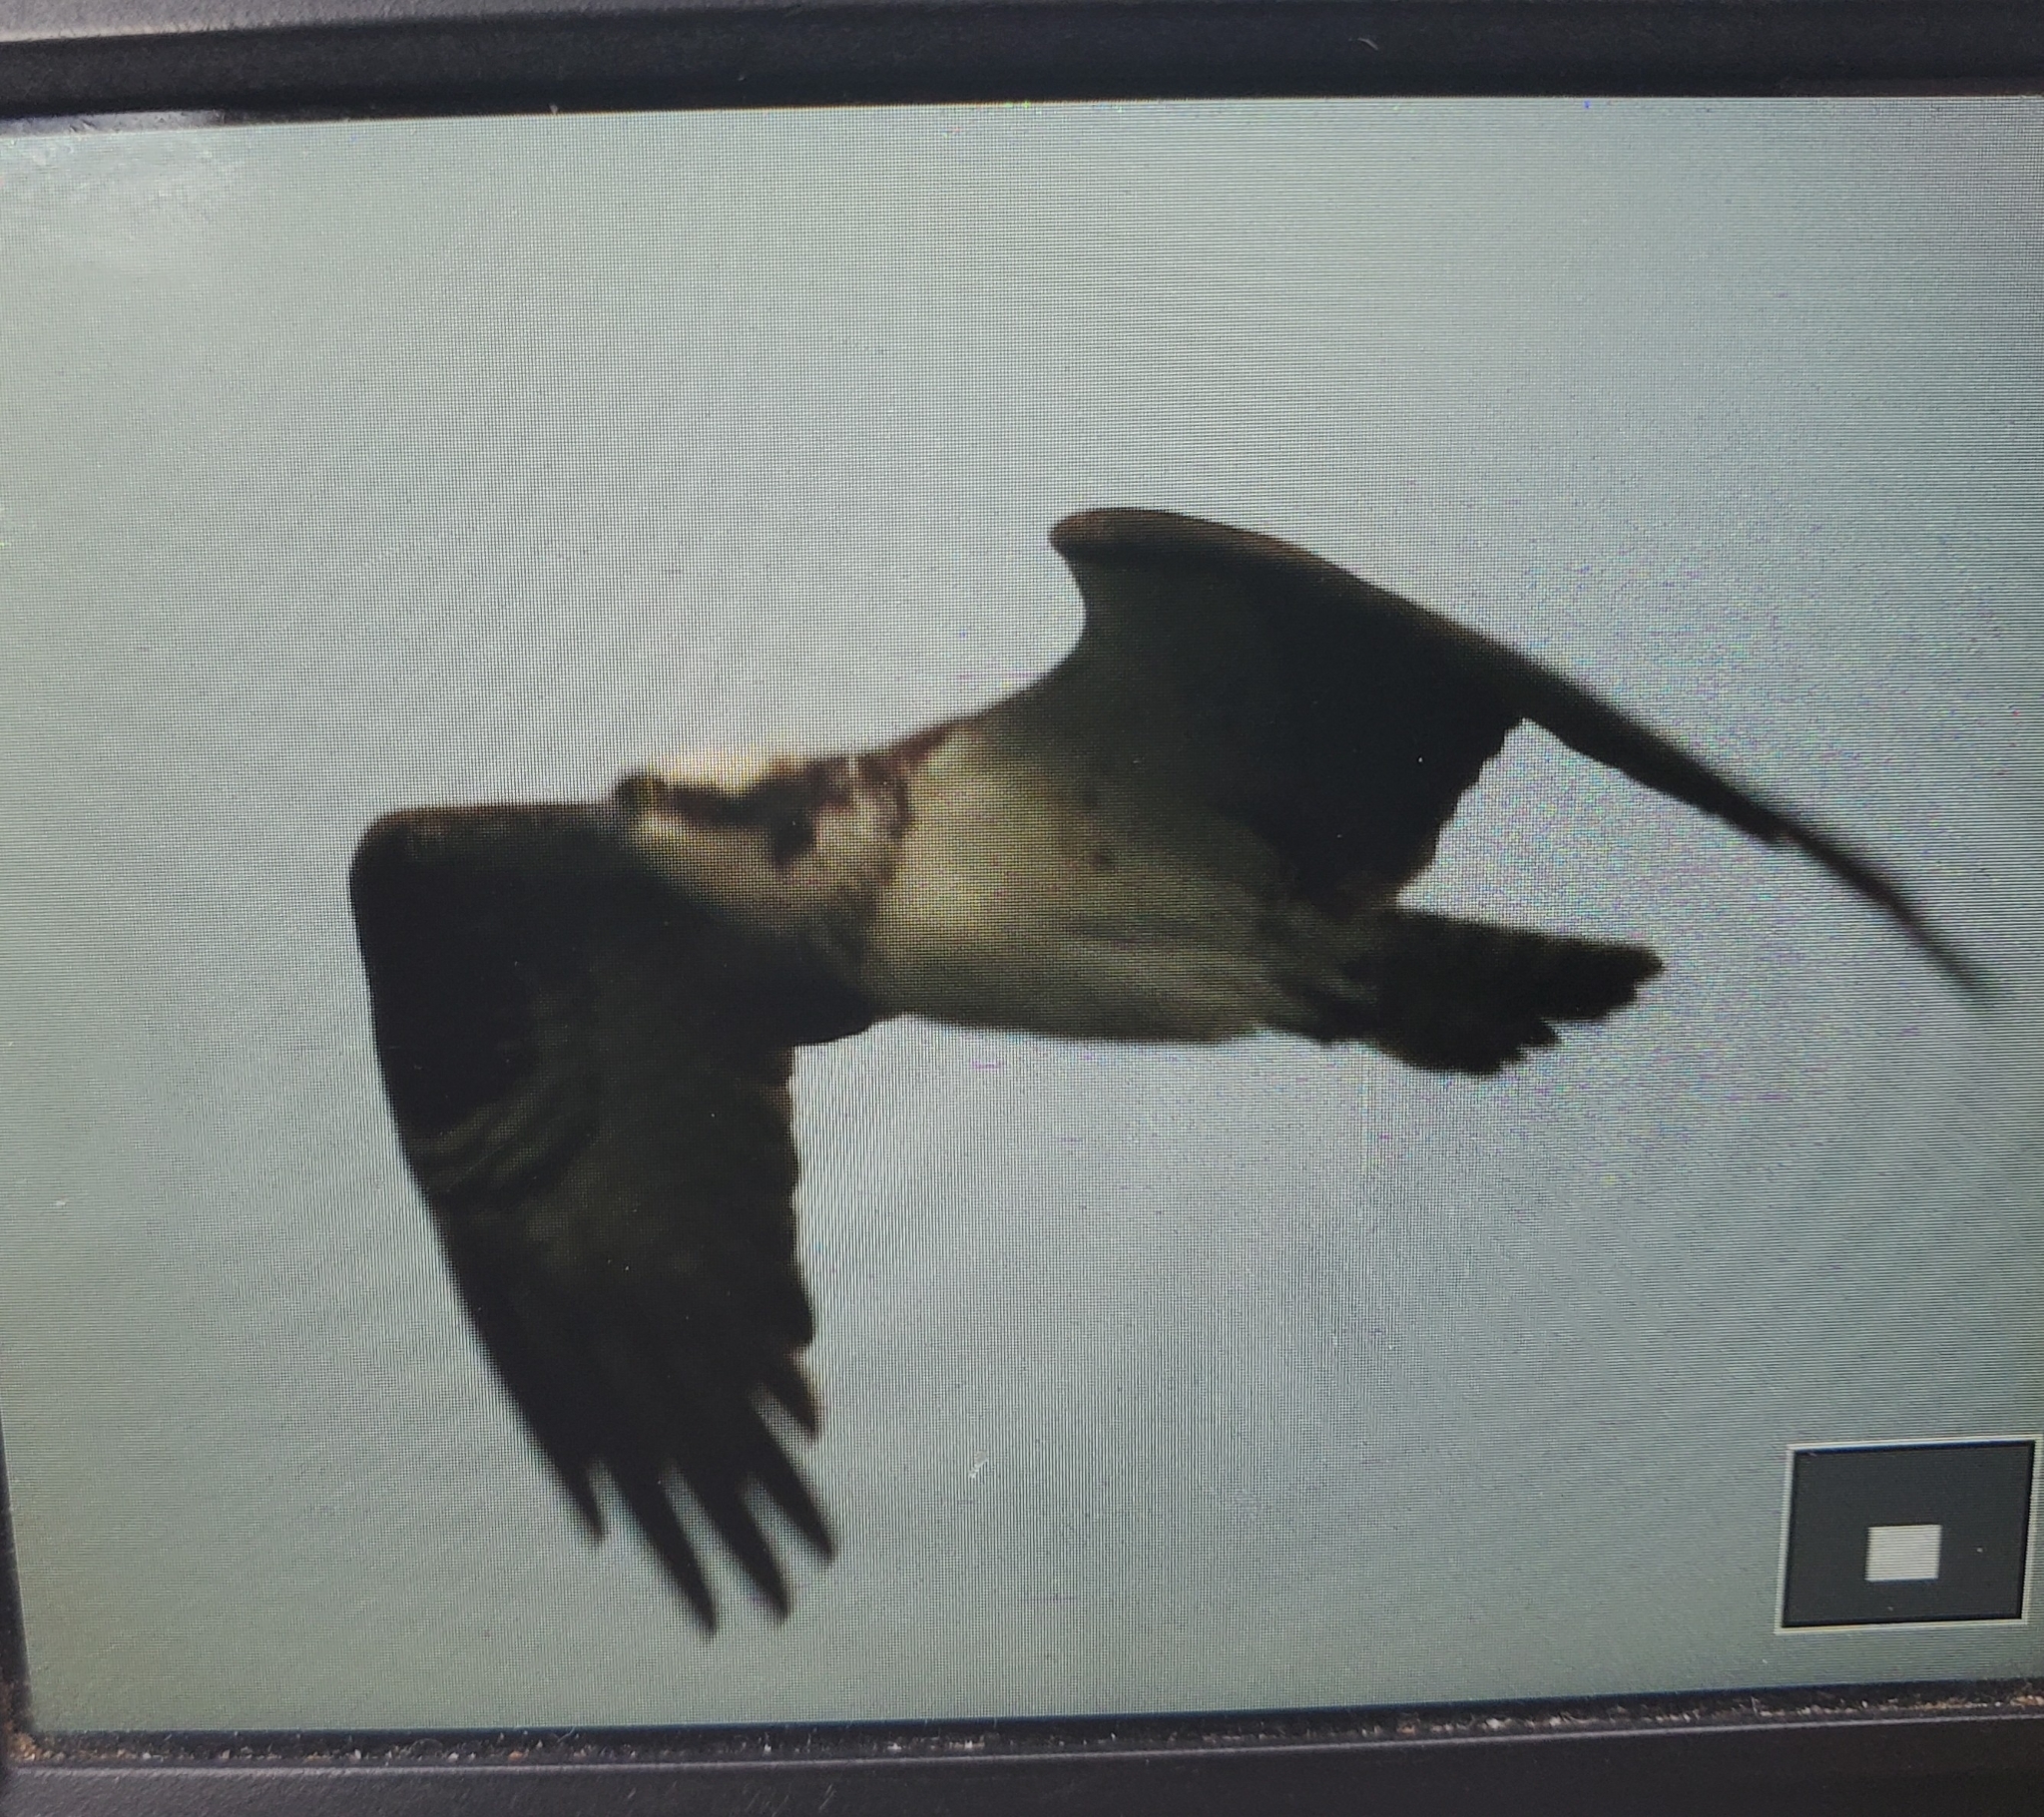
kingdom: Animalia
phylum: Chordata
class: Aves
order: Accipitriformes
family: Pandionidae
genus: Pandion
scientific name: Pandion haliaetus
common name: Osprey
